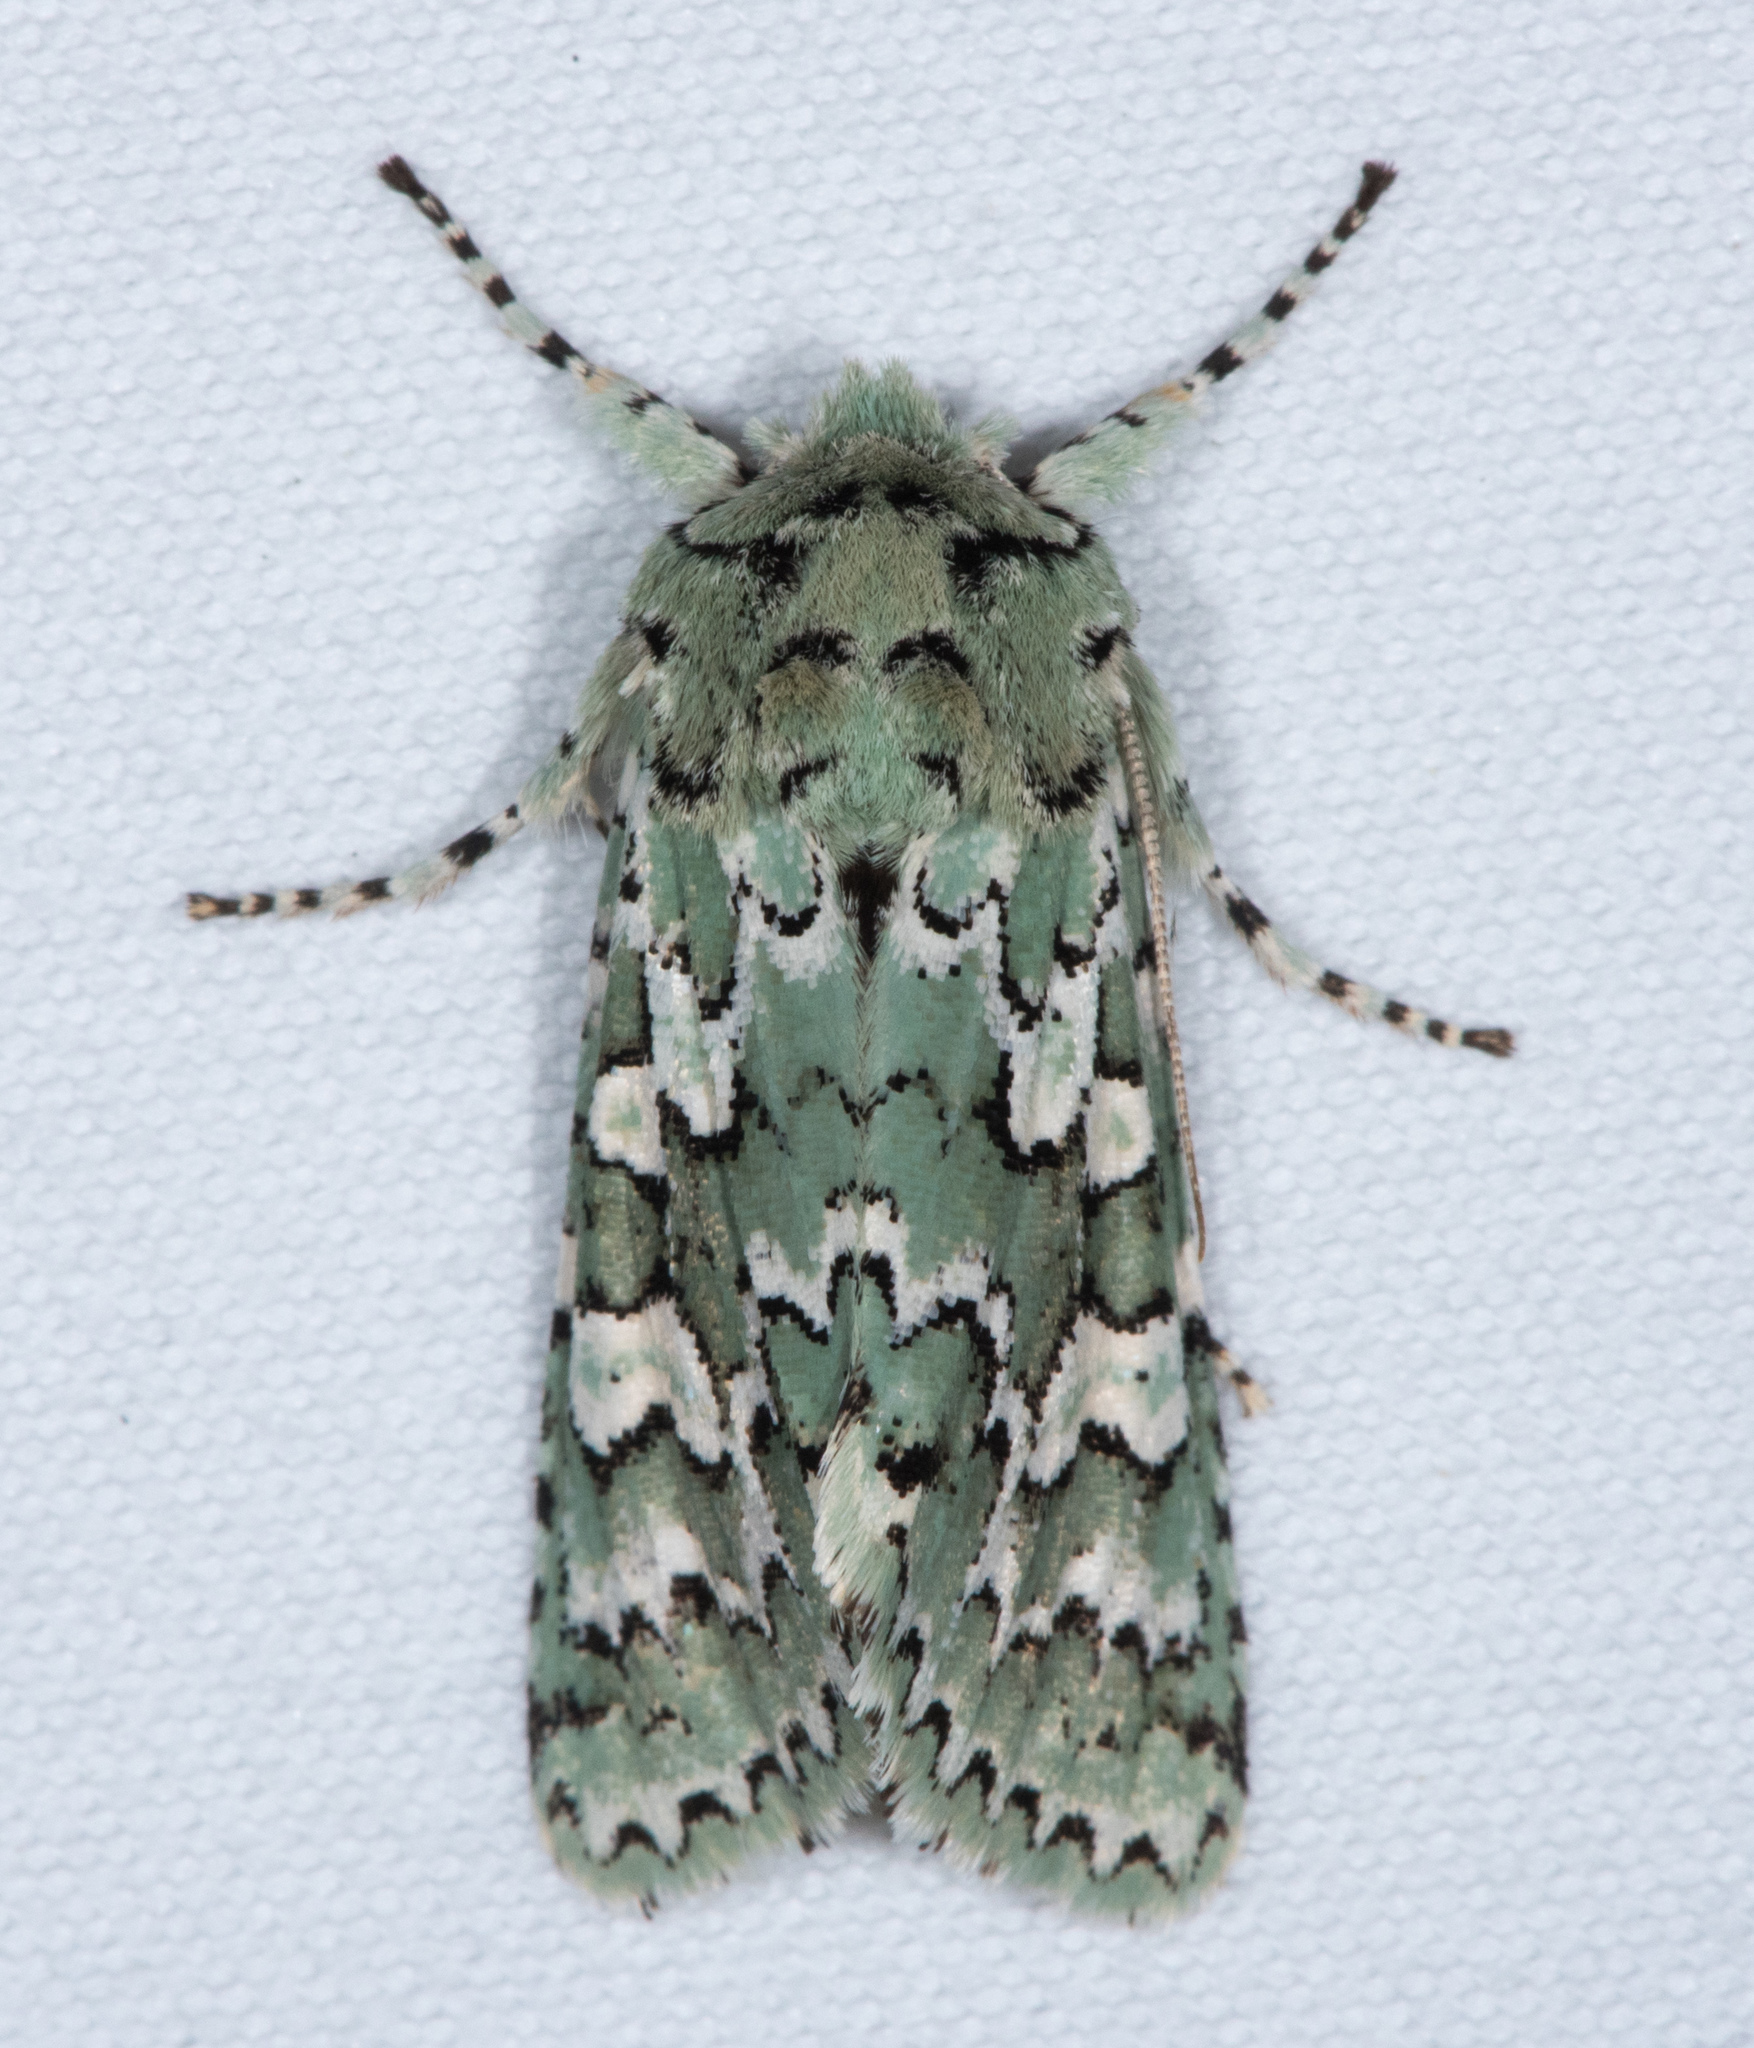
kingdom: Animalia
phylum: Arthropoda
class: Insecta
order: Lepidoptera
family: Noctuidae
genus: Feralia
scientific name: Feralia februalis
